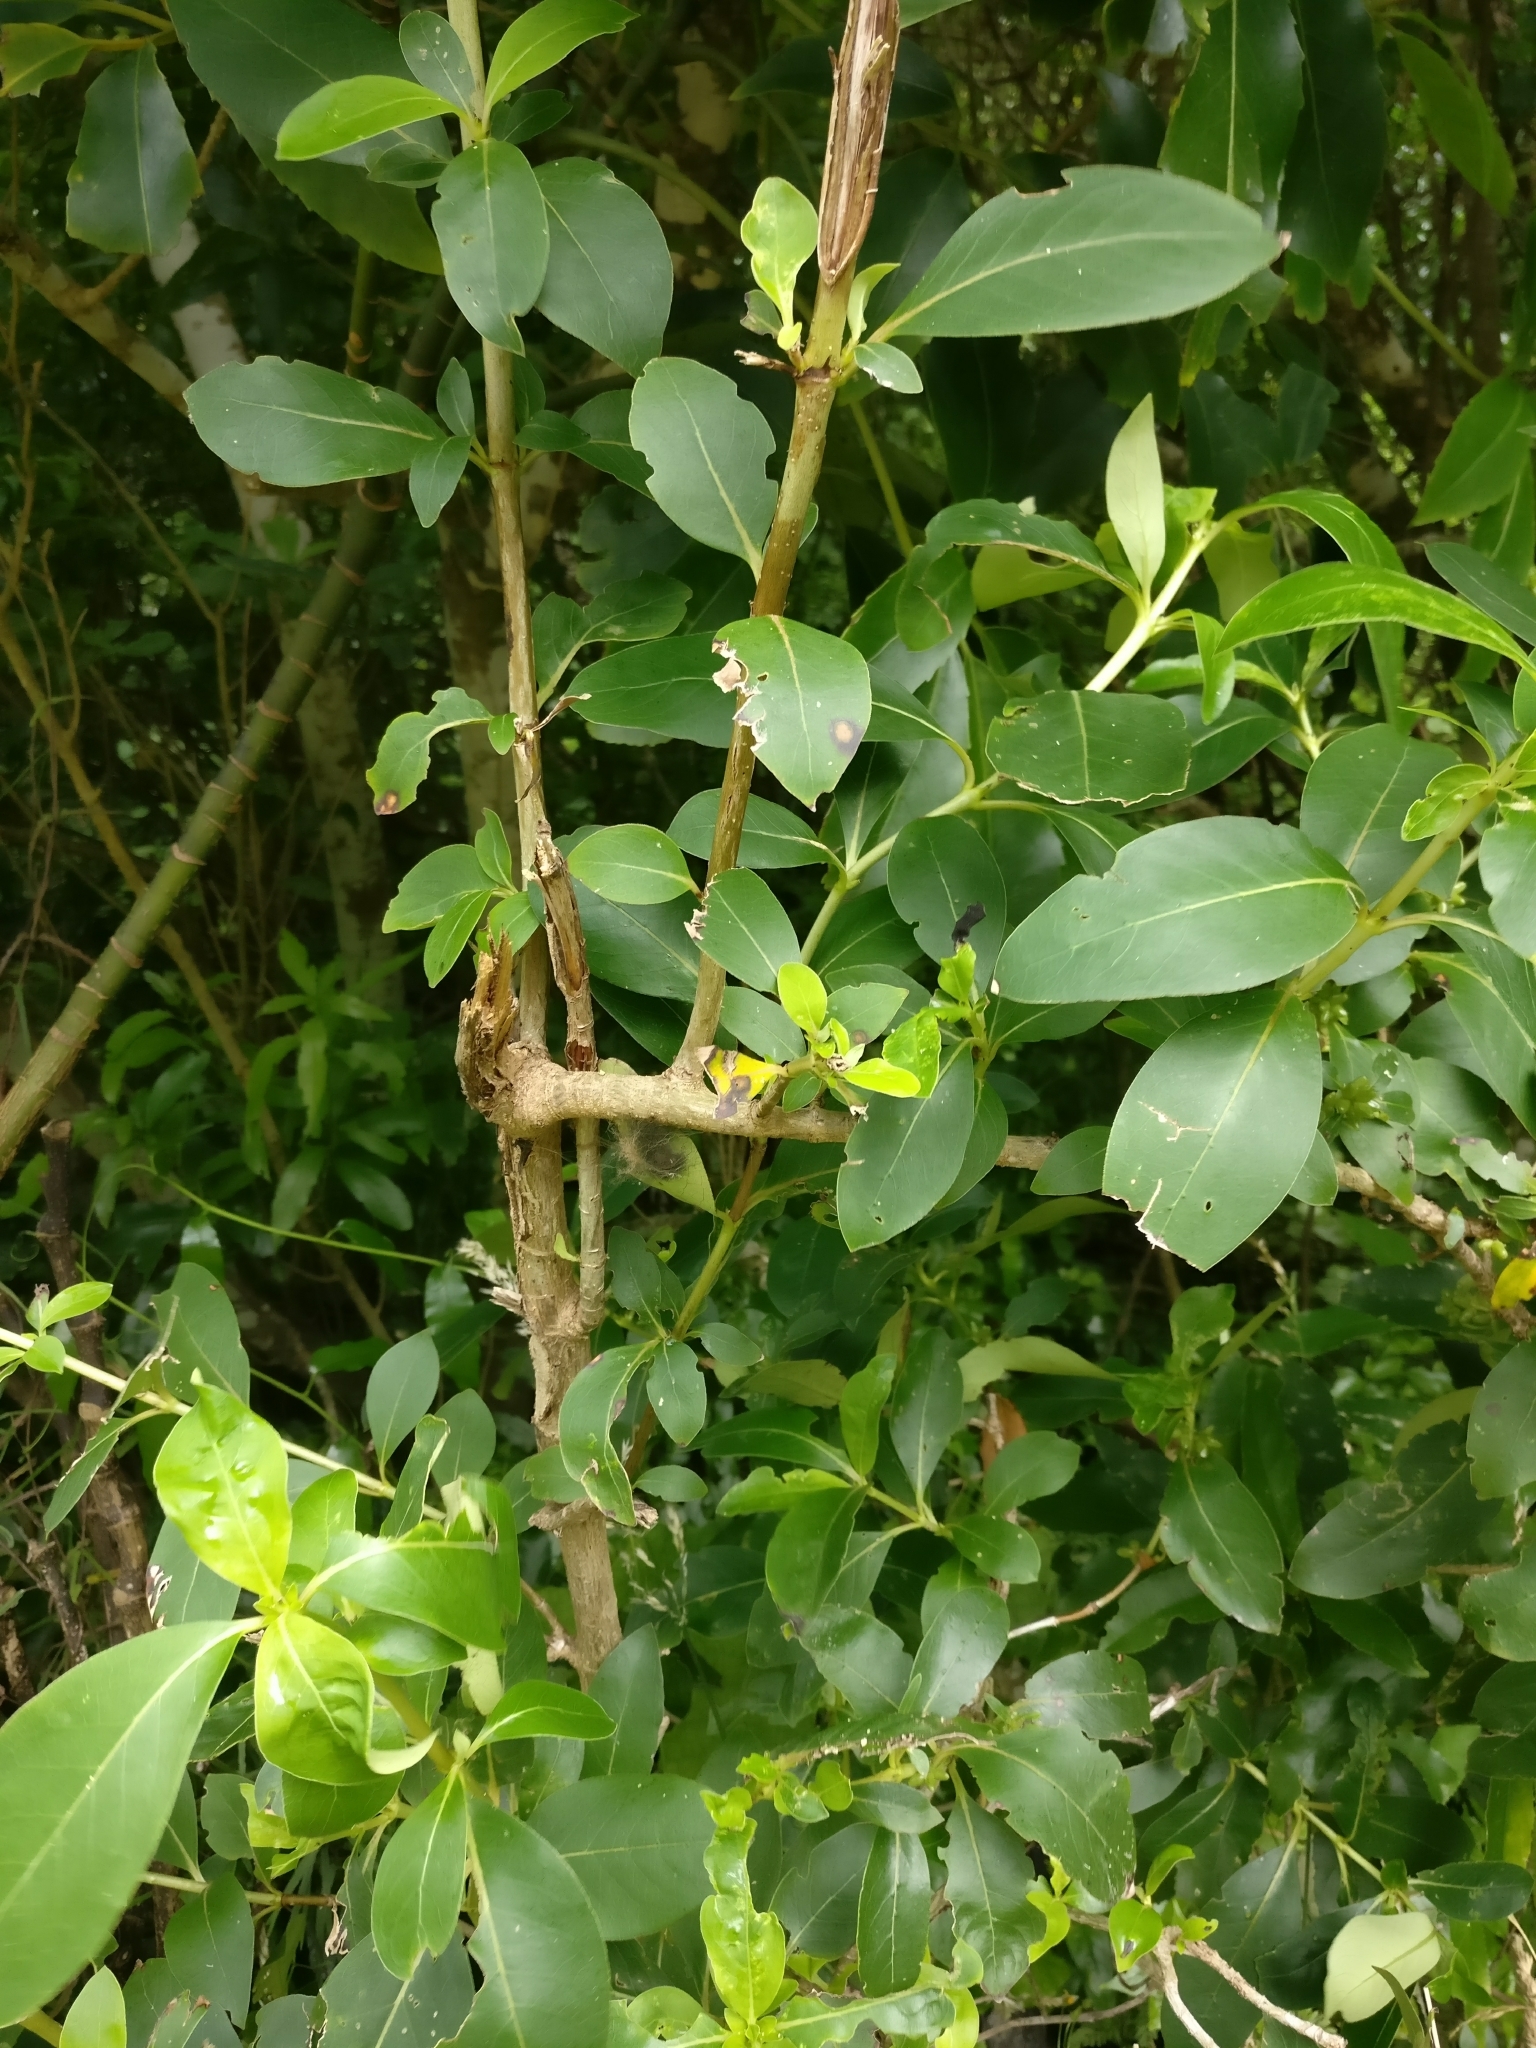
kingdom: Plantae
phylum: Tracheophyta
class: Magnoliopsida
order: Gentianales
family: Rubiaceae
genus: Coprosma
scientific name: Coprosma robusta
